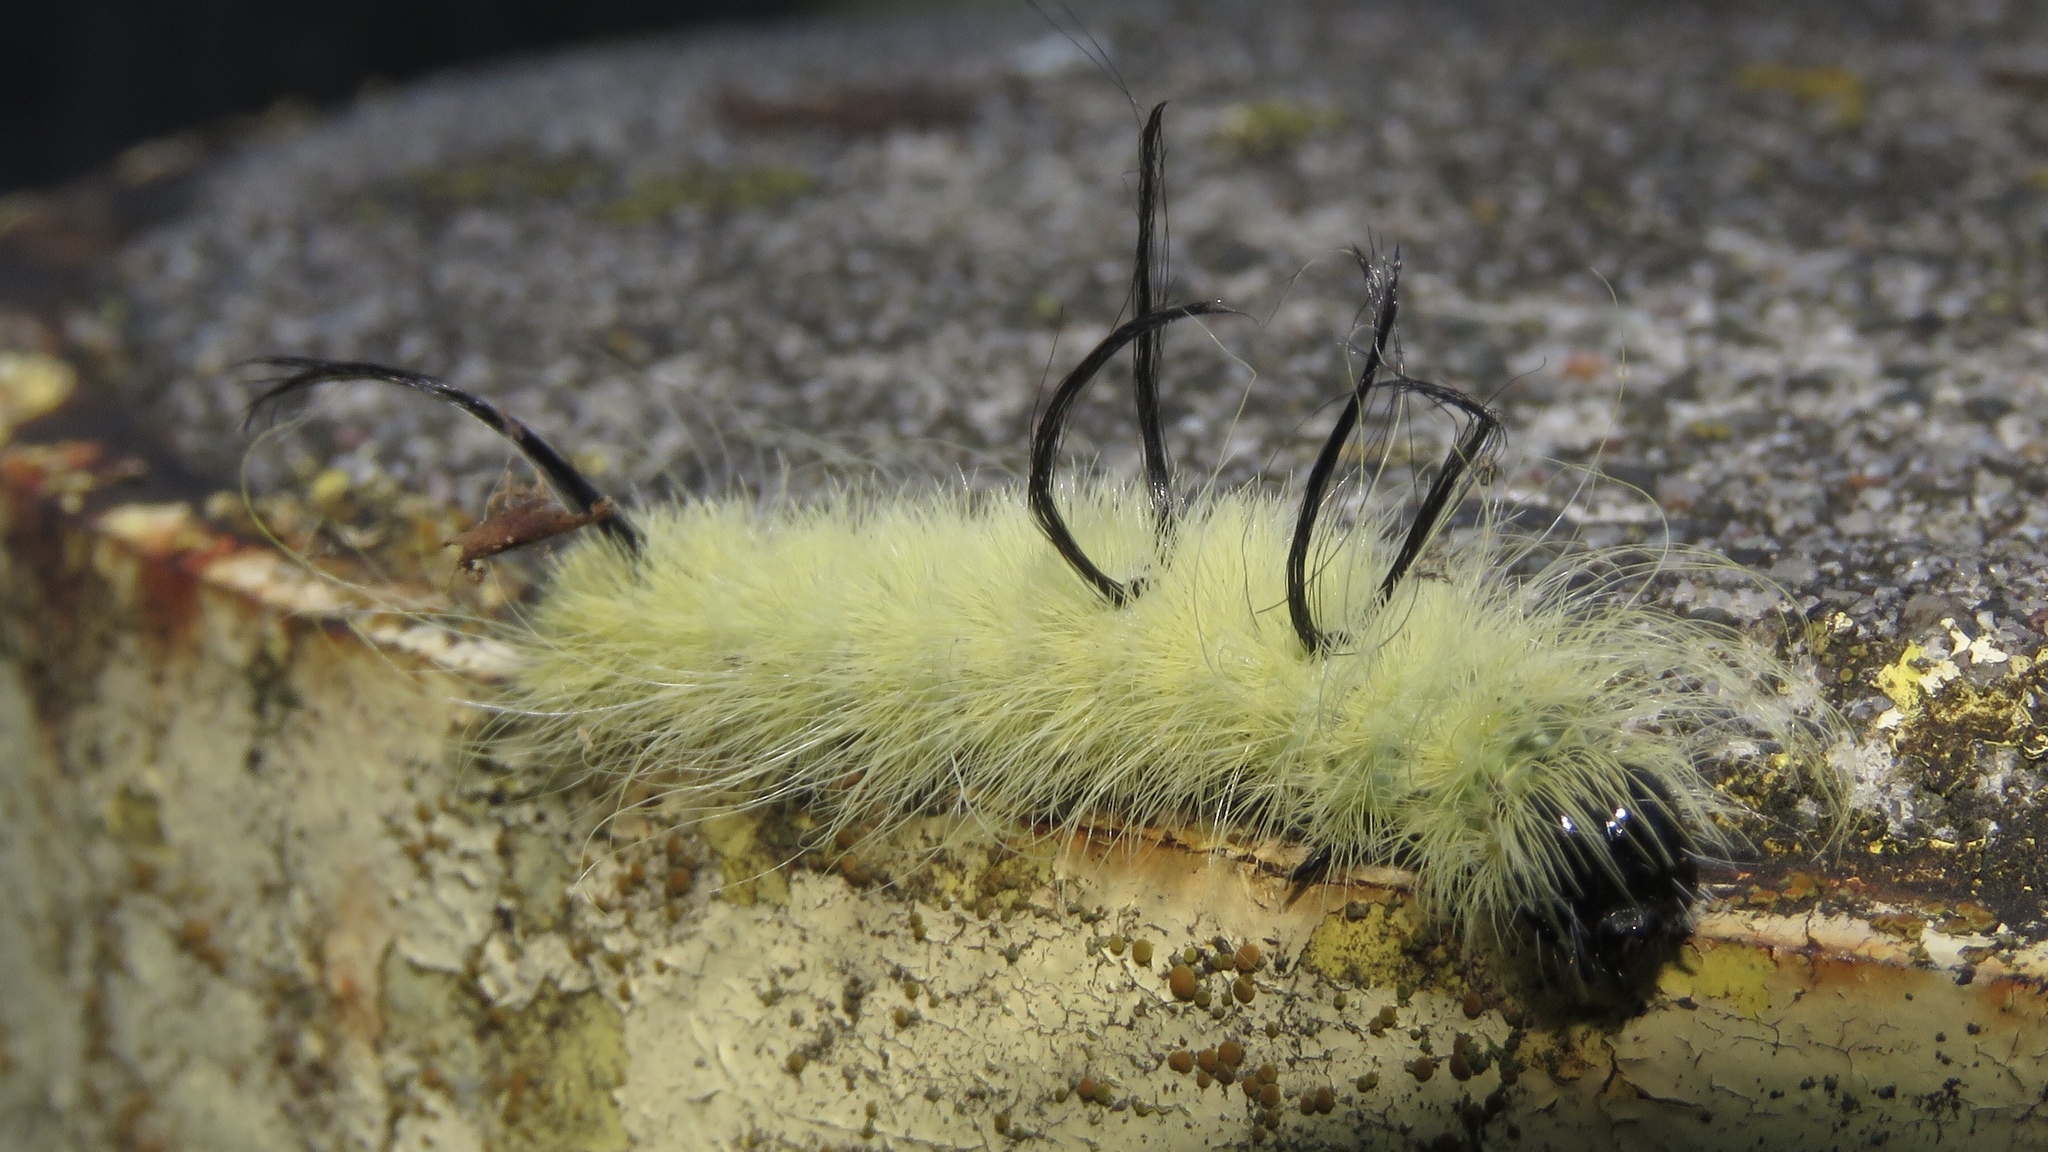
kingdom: Animalia
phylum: Arthropoda
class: Insecta
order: Lepidoptera
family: Noctuidae
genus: Acronicta
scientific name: Acronicta americana
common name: American dagger
